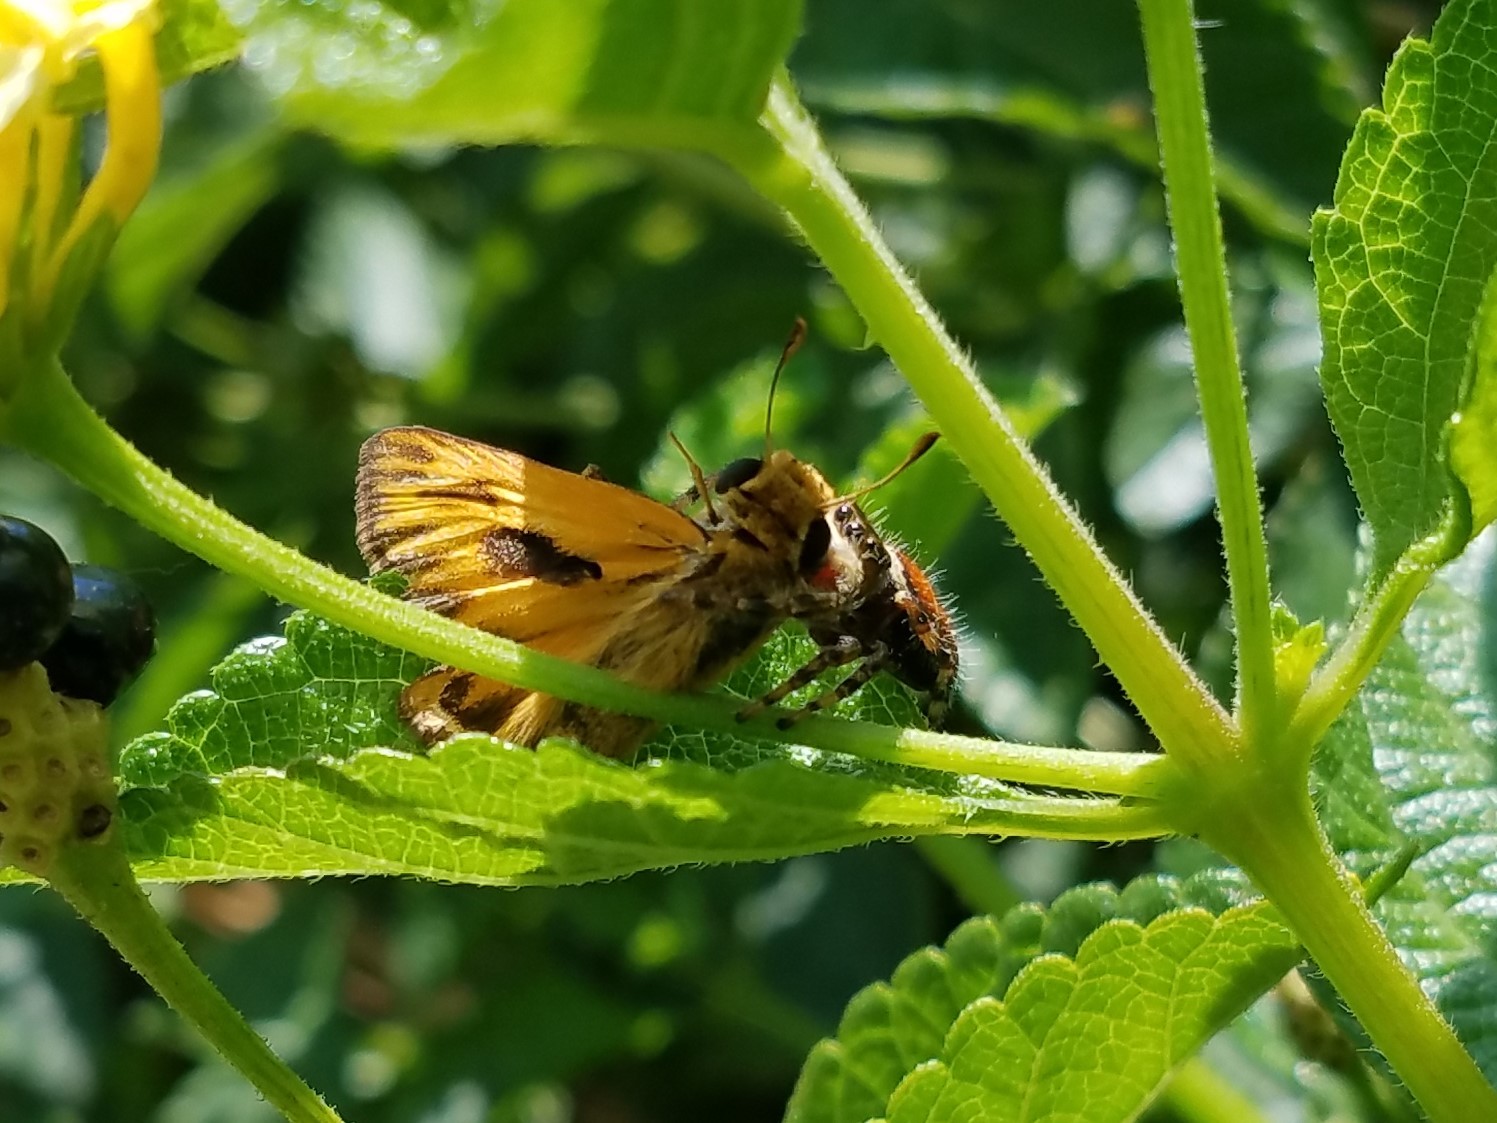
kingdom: Animalia
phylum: Arthropoda
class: Arachnida
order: Araneae
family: Salticidae
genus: Phidippus
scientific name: Phidippus clarus
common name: Brilliant jumping spider
